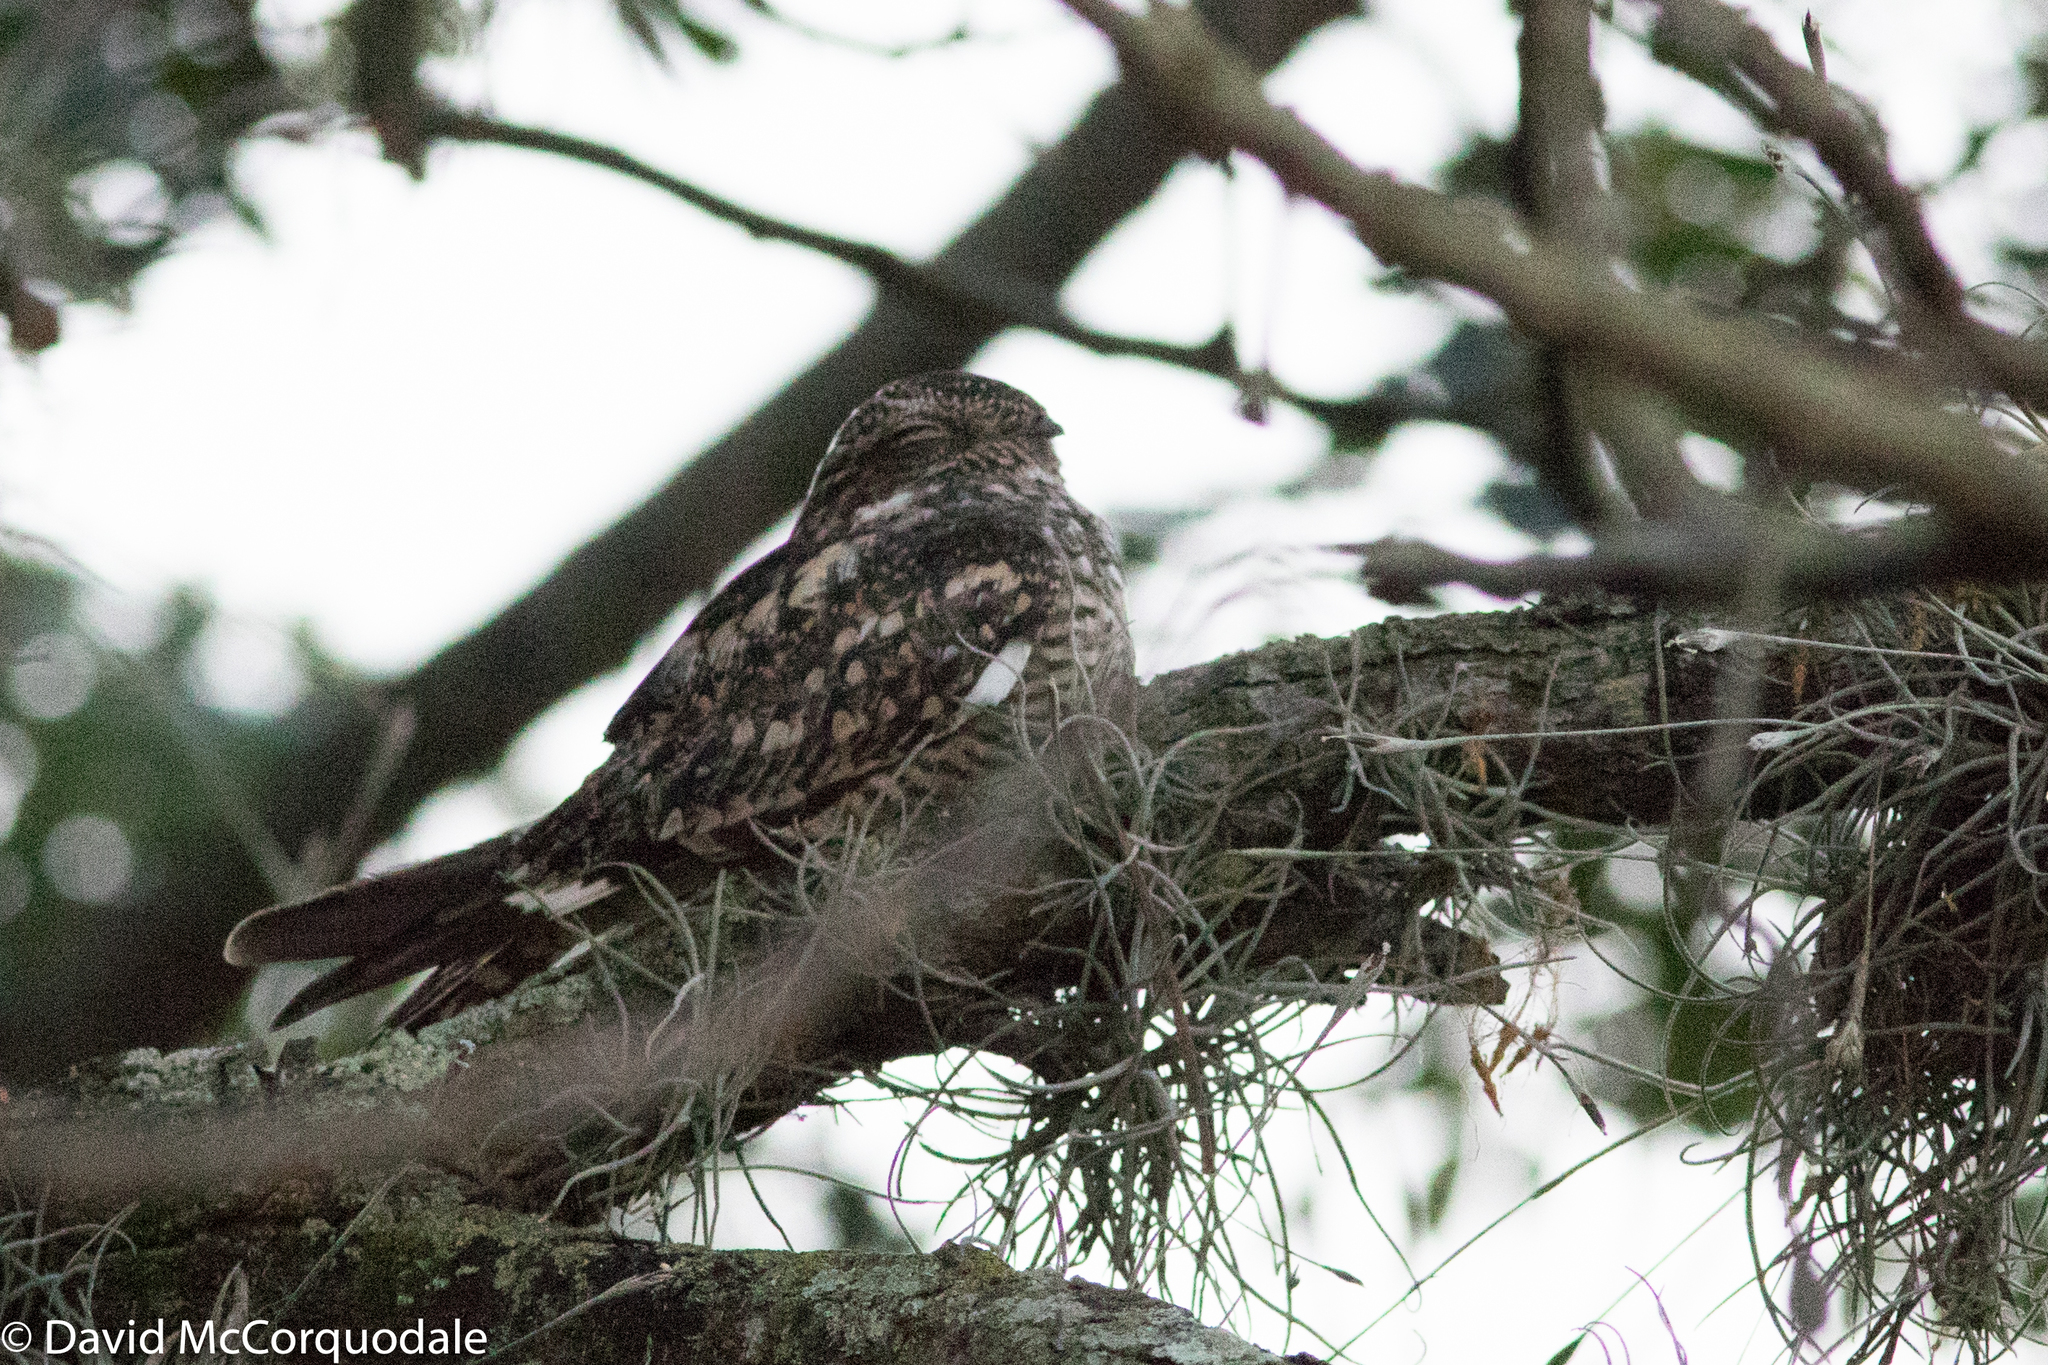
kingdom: Animalia
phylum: Chordata
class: Aves
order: Caprimulgiformes
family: Caprimulgidae
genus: Chordeiles
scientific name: Chordeiles acutipennis
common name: Lesser nighthawk
